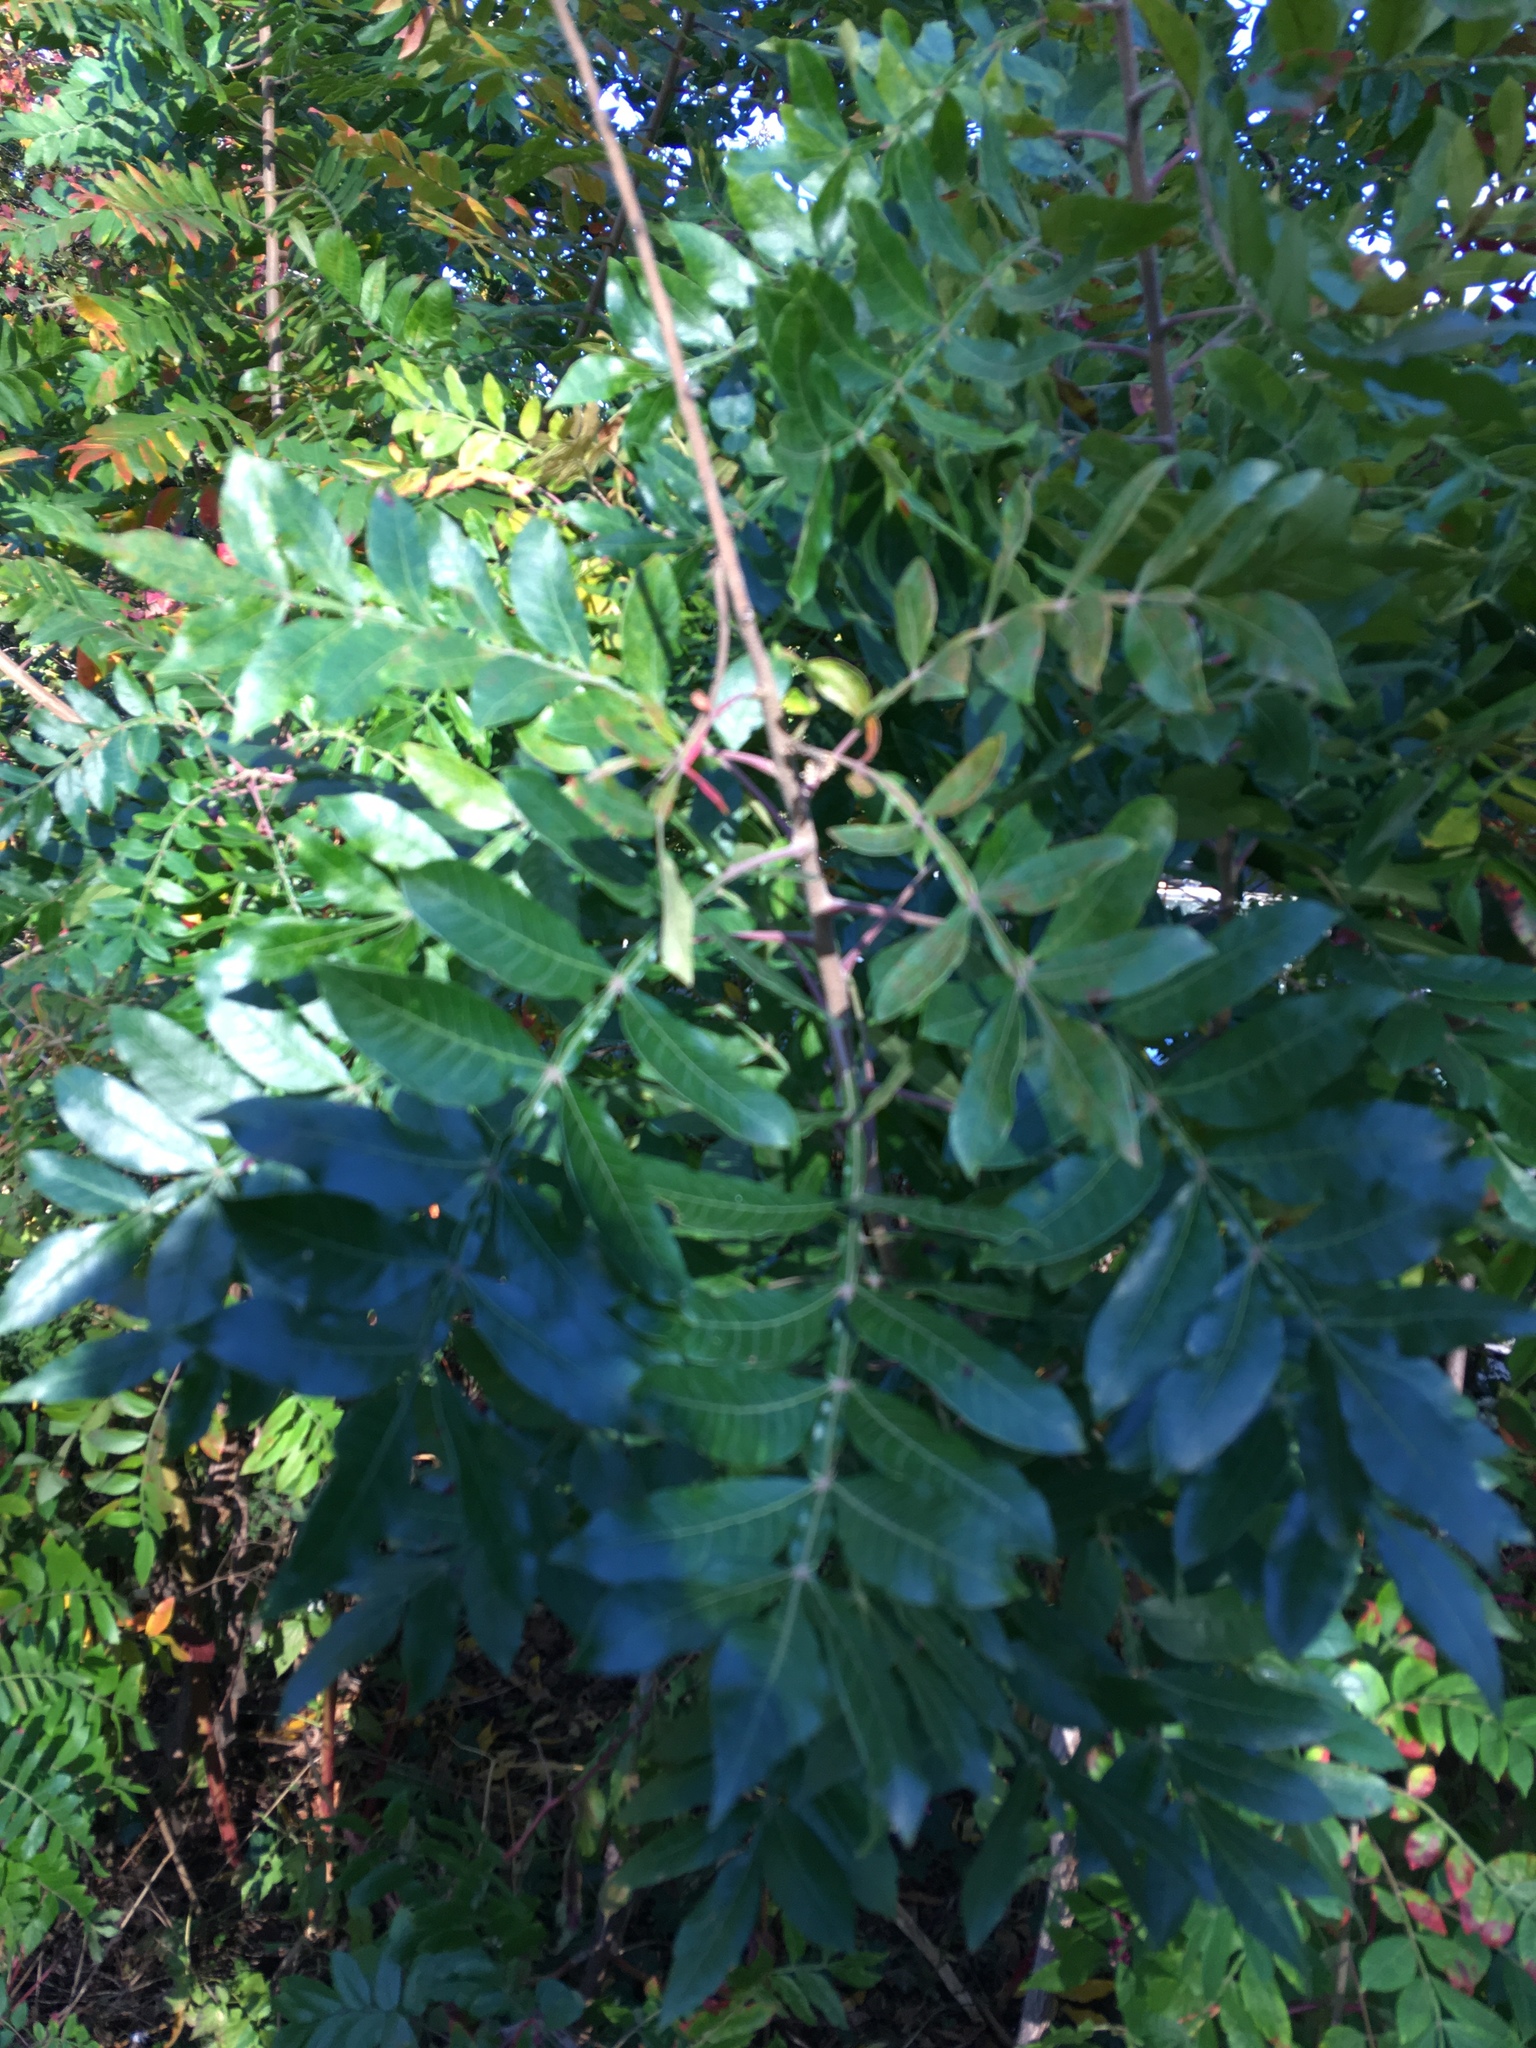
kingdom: Plantae
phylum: Tracheophyta
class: Magnoliopsida
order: Sapindales
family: Anacardiaceae
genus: Rhus
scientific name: Rhus copallina
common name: Shining sumac
